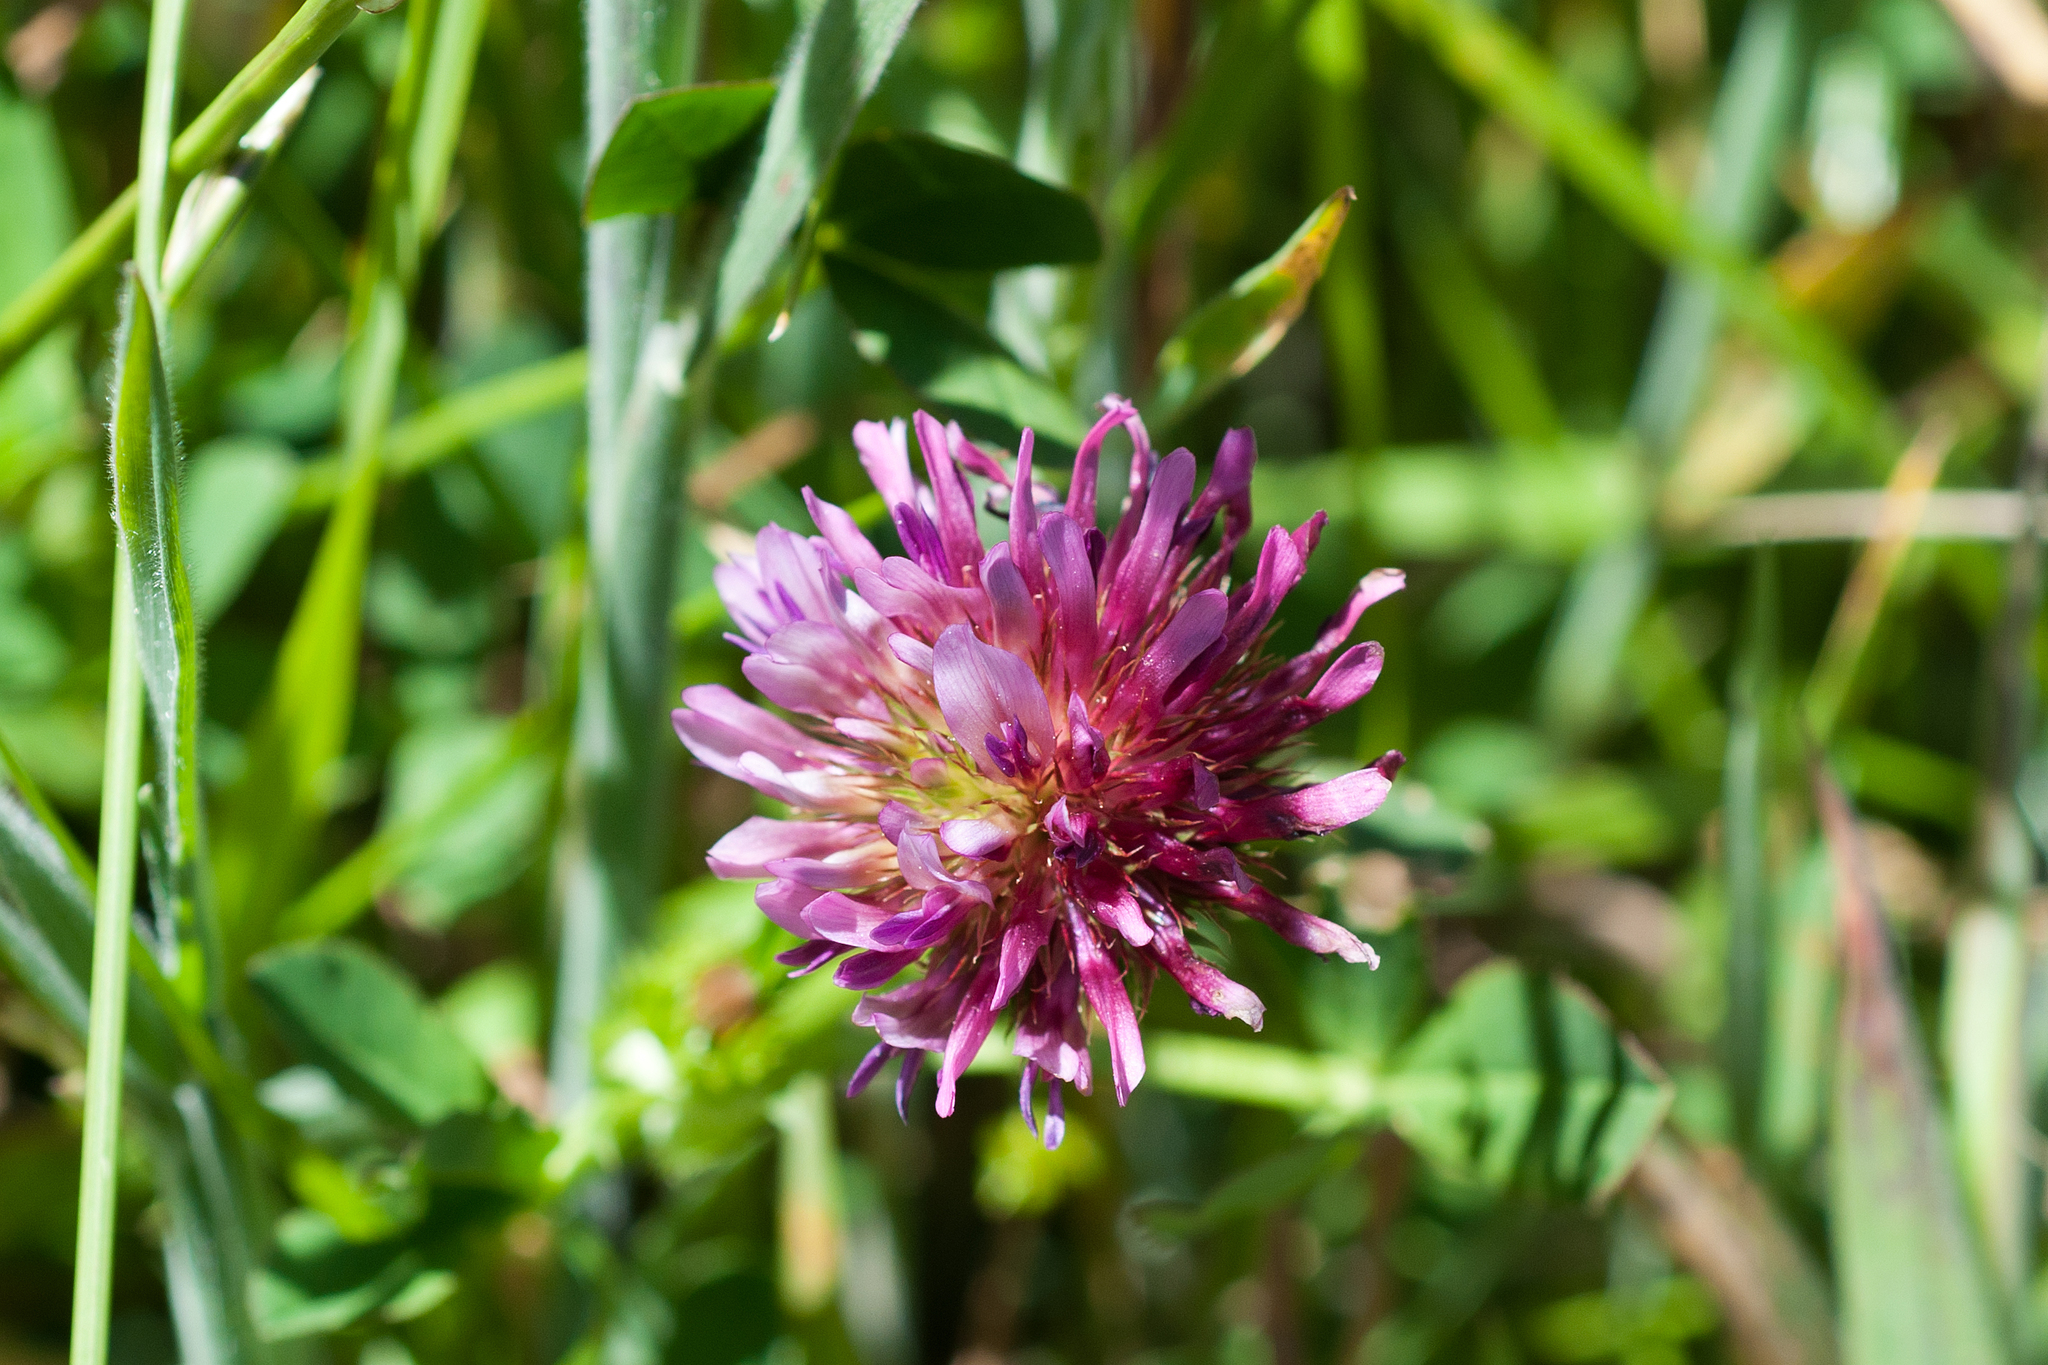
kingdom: Plantae
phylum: Tracheophyta
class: Magnoliopsida
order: Fabales
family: Fabaceae
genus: Trifolium
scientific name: Trifolium wormskioldii
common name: Springbank clover
